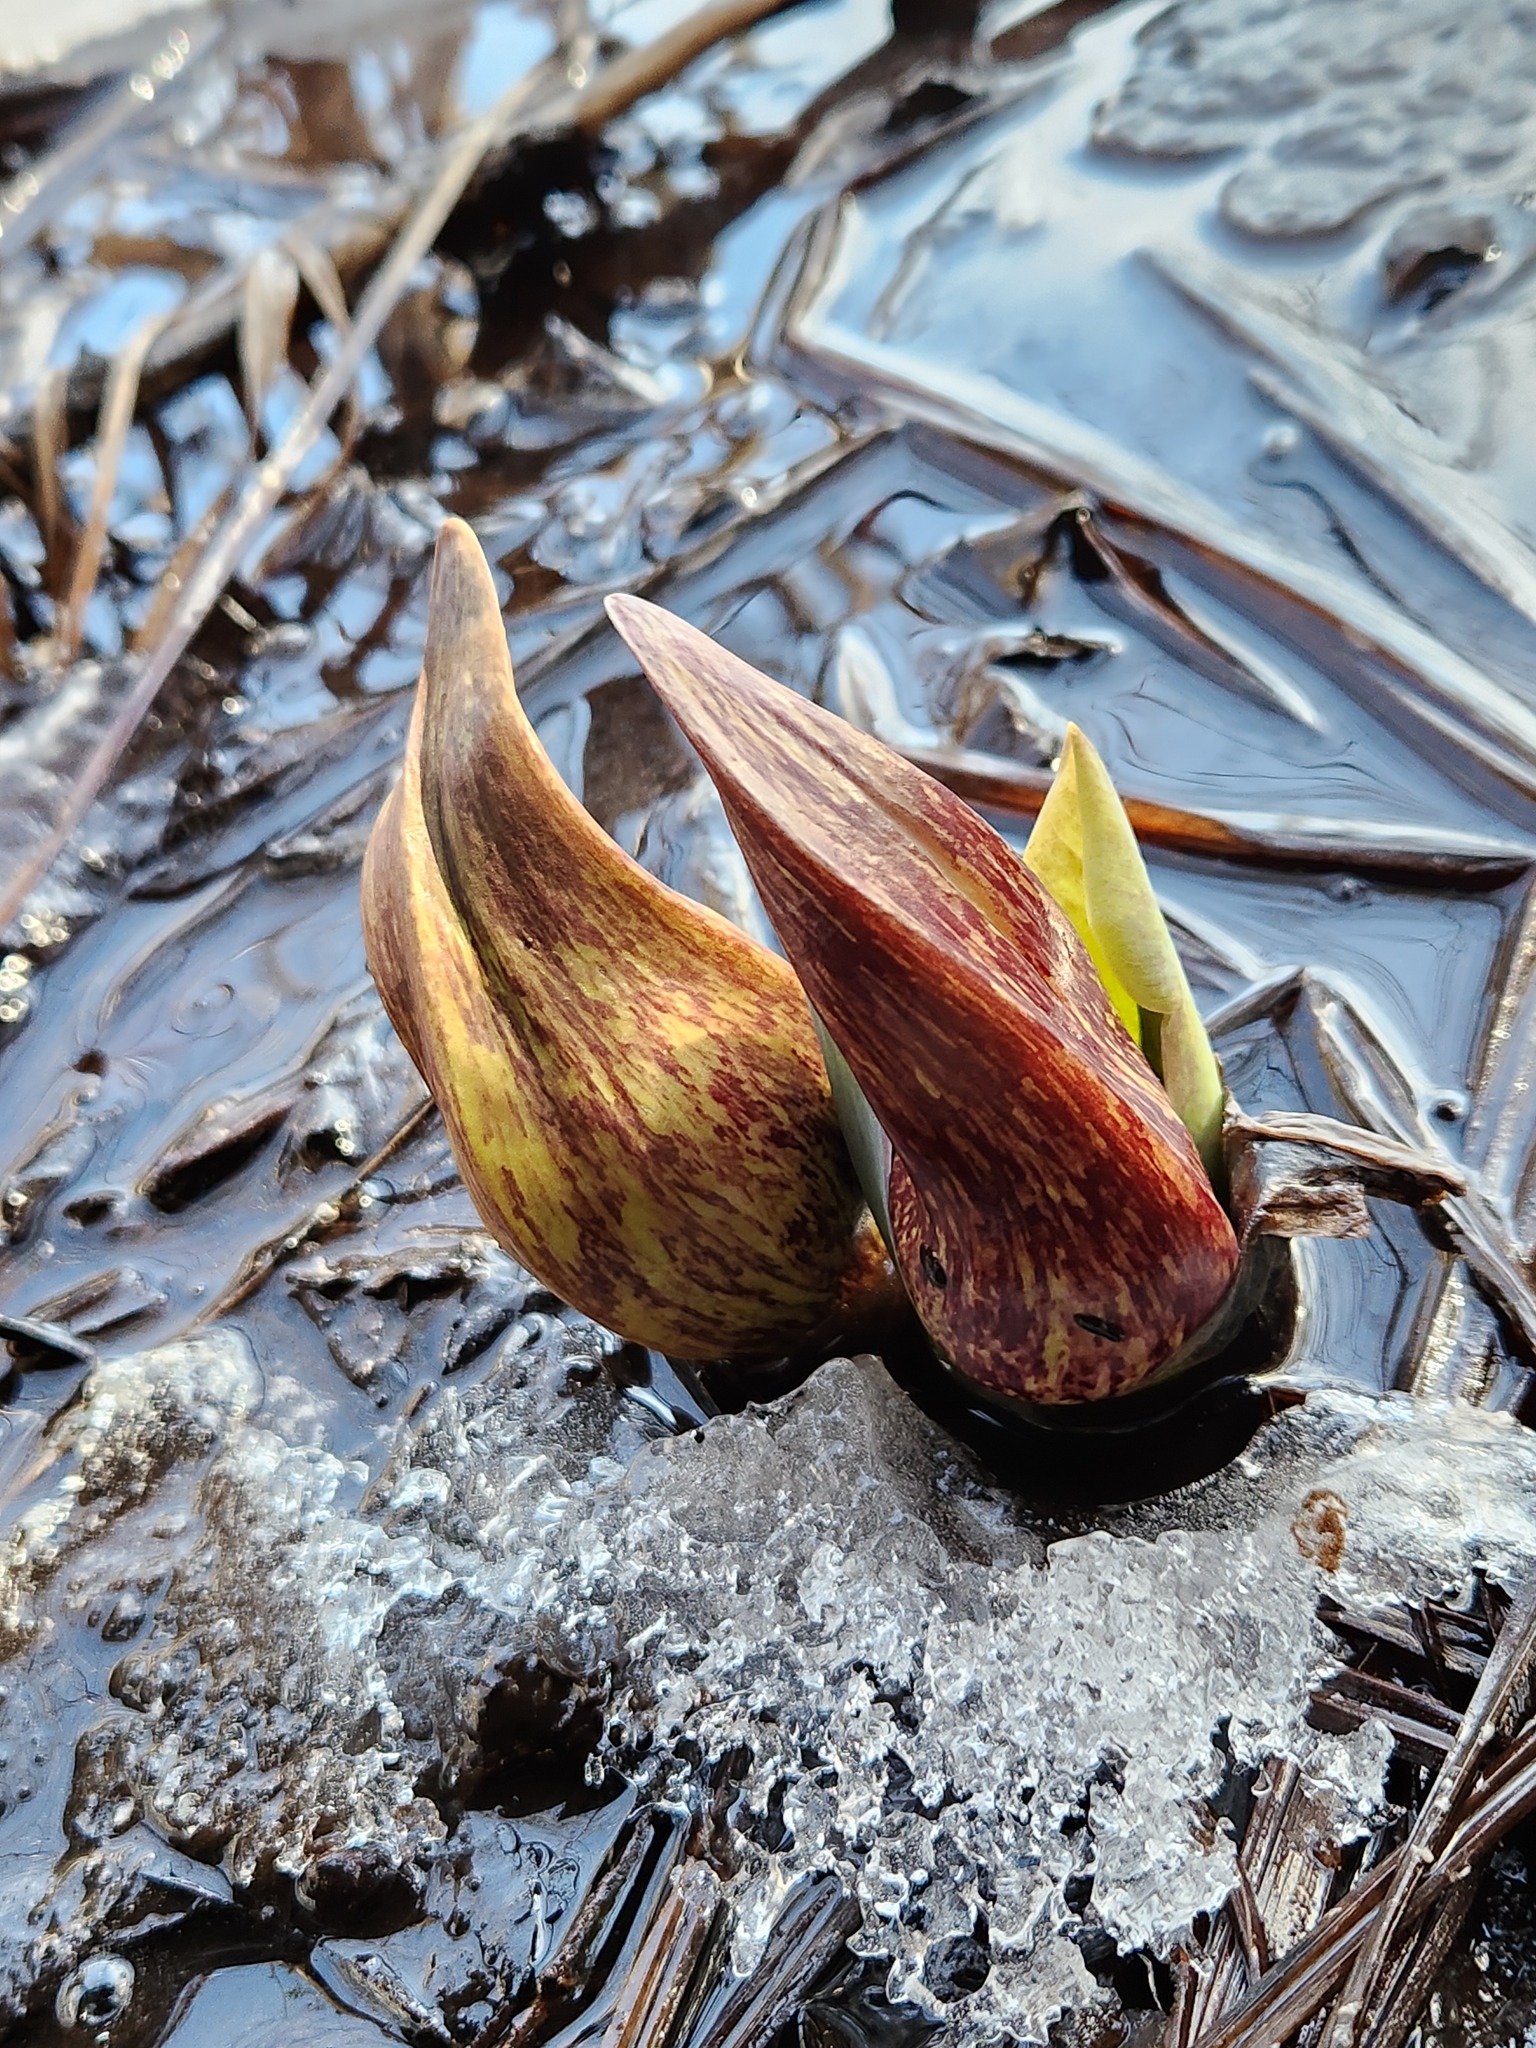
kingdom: Plantae
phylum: Tracheophyta
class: Liliopsida
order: Alismatales
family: Araceae
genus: Symplocarpus
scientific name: Symplocarpus foetidus
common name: Eastern skunk cabbage
